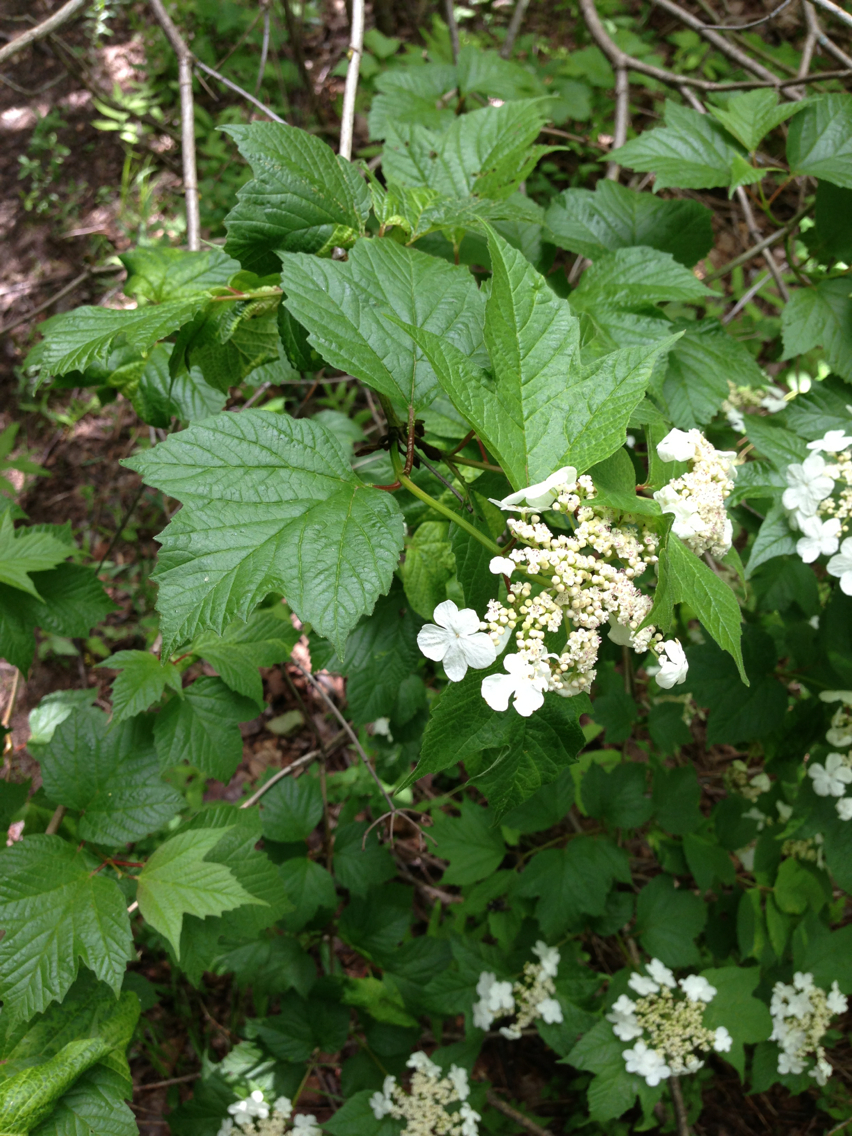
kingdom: Plantae
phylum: Tracheophyta
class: Magnoliopsida
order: Dipsacales
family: Viburnaceae
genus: Viburnum
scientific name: Viburnum opulus
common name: Guelder-rose
